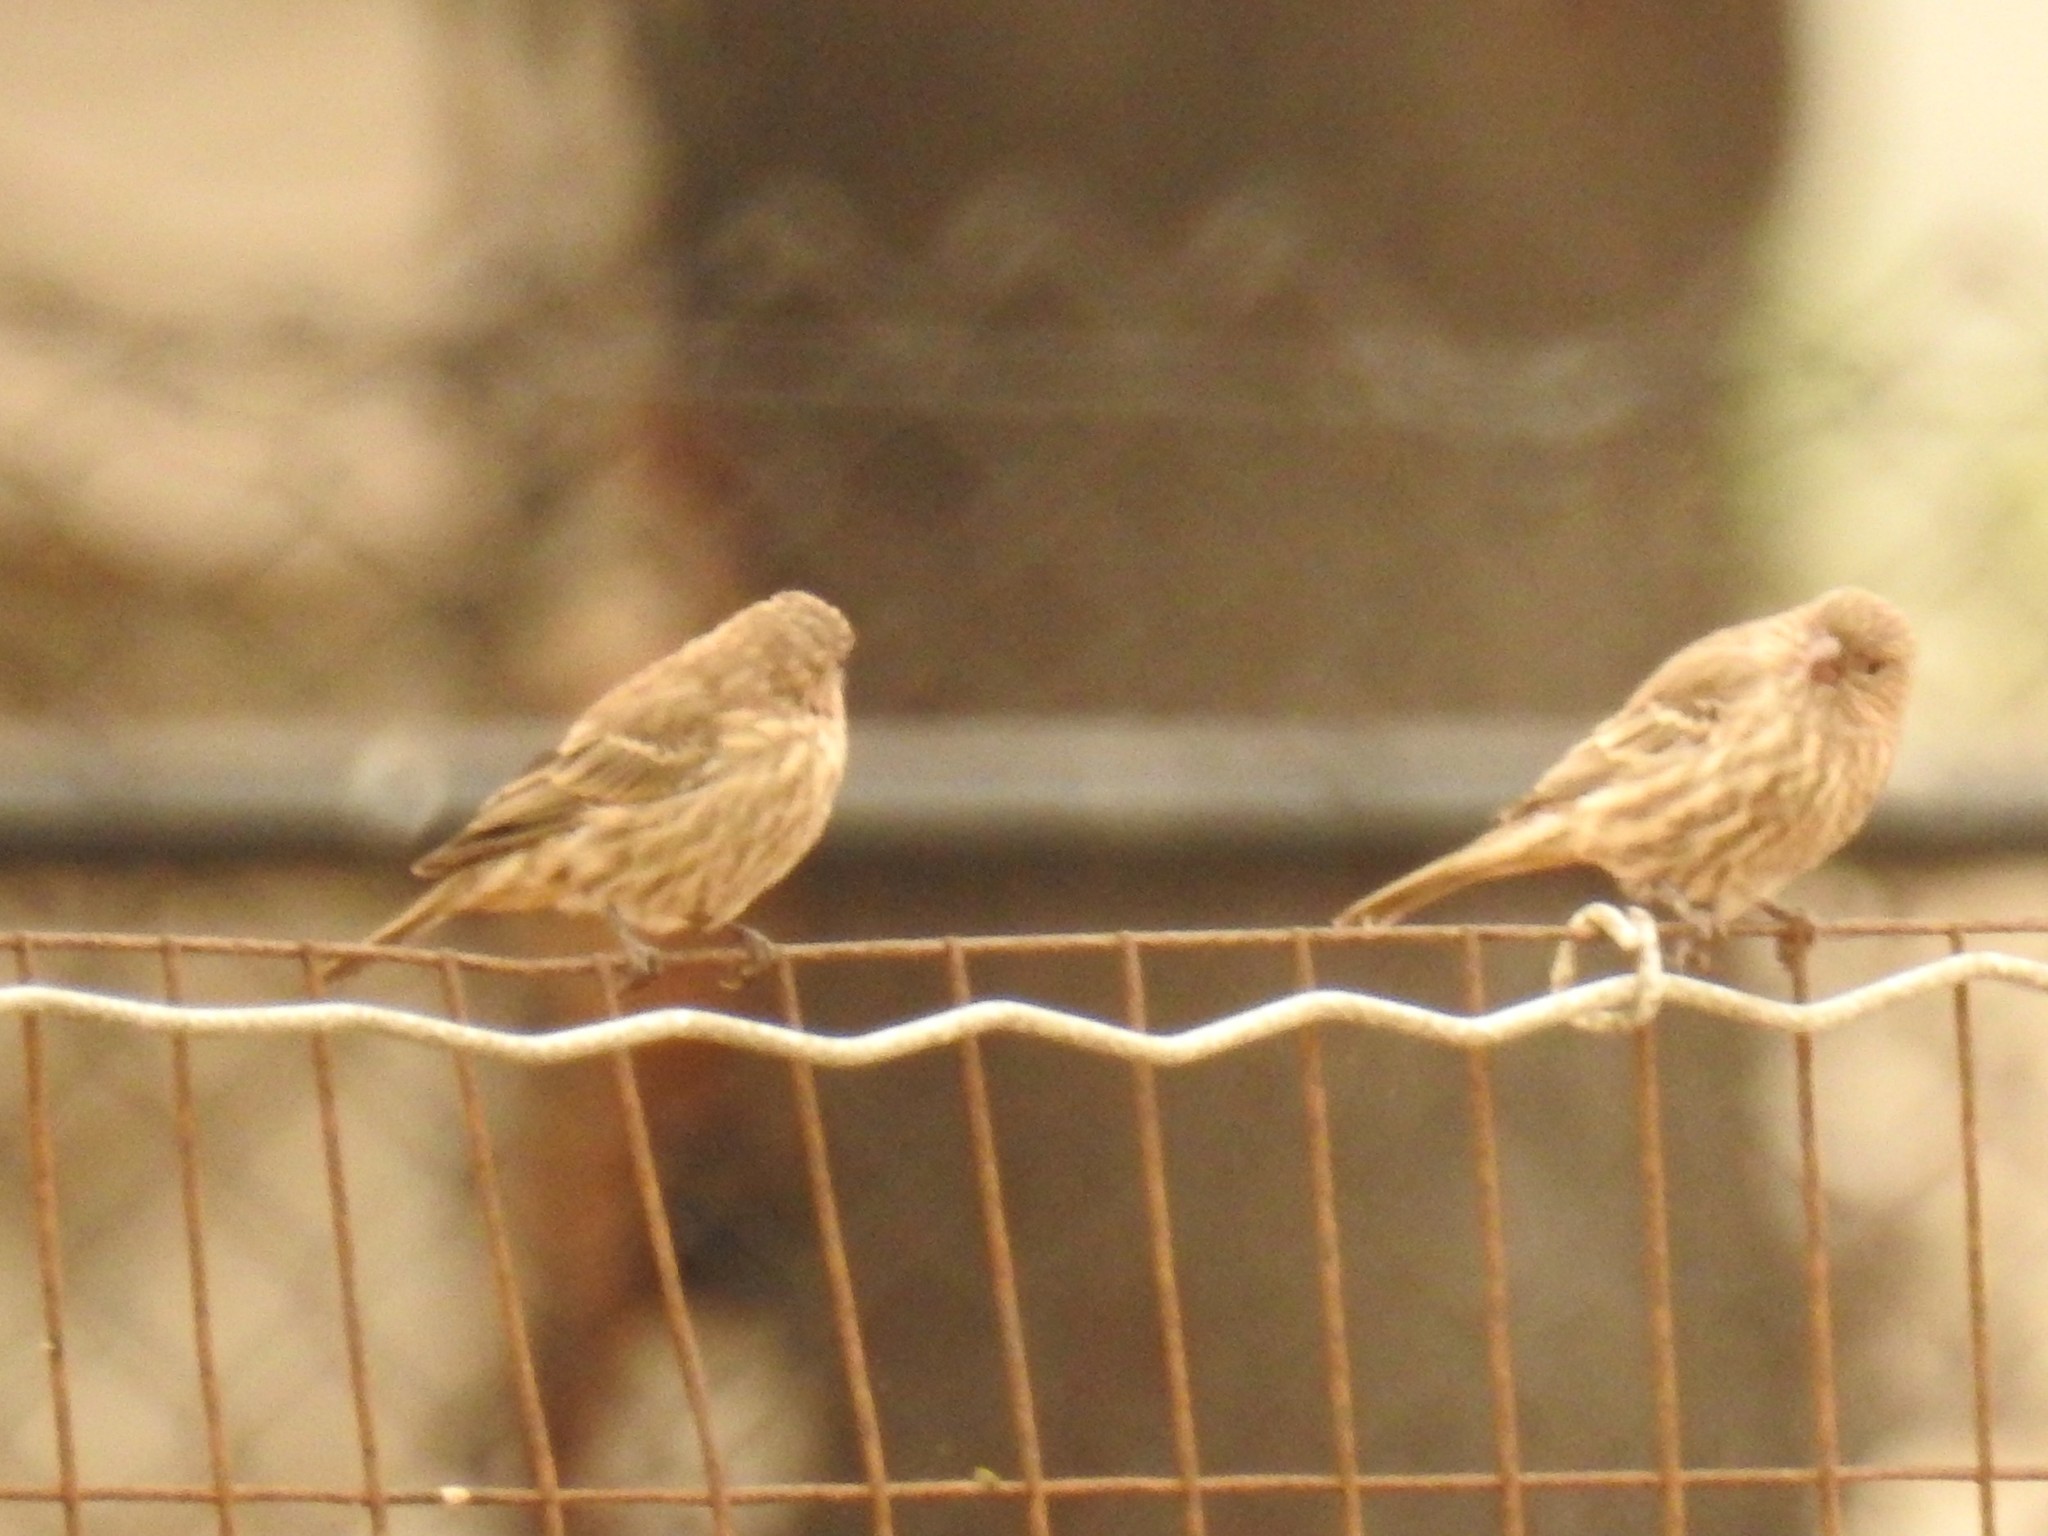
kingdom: Animalia
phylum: Chordata
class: Aves
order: Passeriformes
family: Fringillidae
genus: Haemorhous
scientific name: Haemorhous mexicanus
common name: House finch
